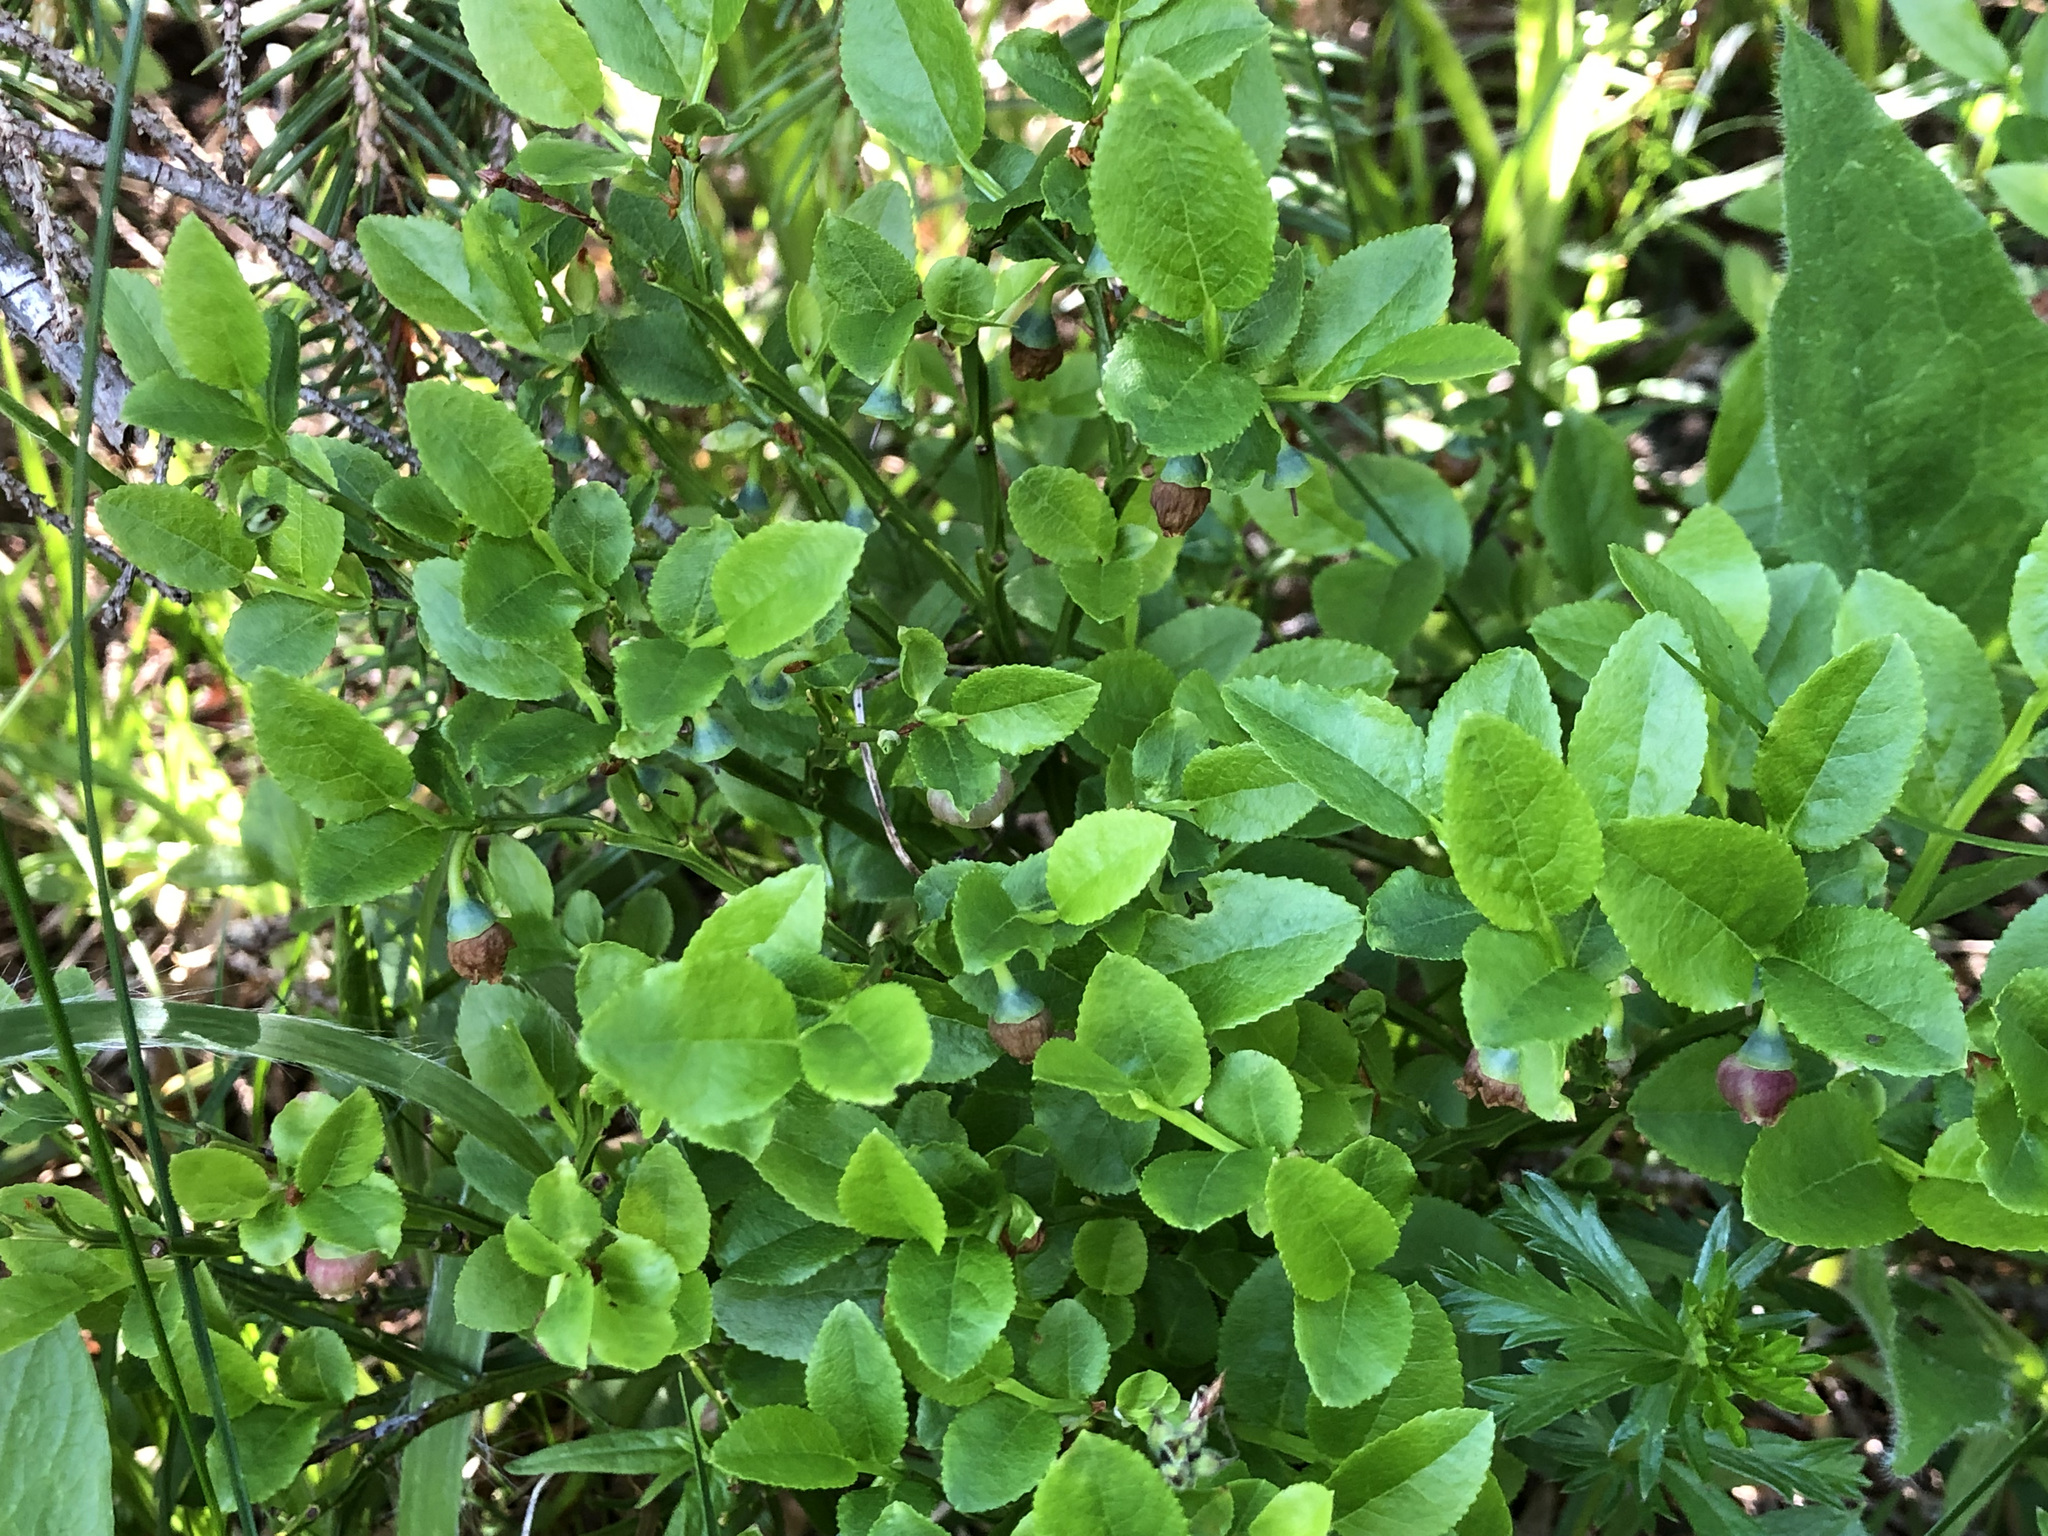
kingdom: Plantae
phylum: Tracheophyta
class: Magnoliopsida
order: Ericales
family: Ericaceae
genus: Vaccinium
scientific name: Vaccinium myrtillus
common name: Bilberry
